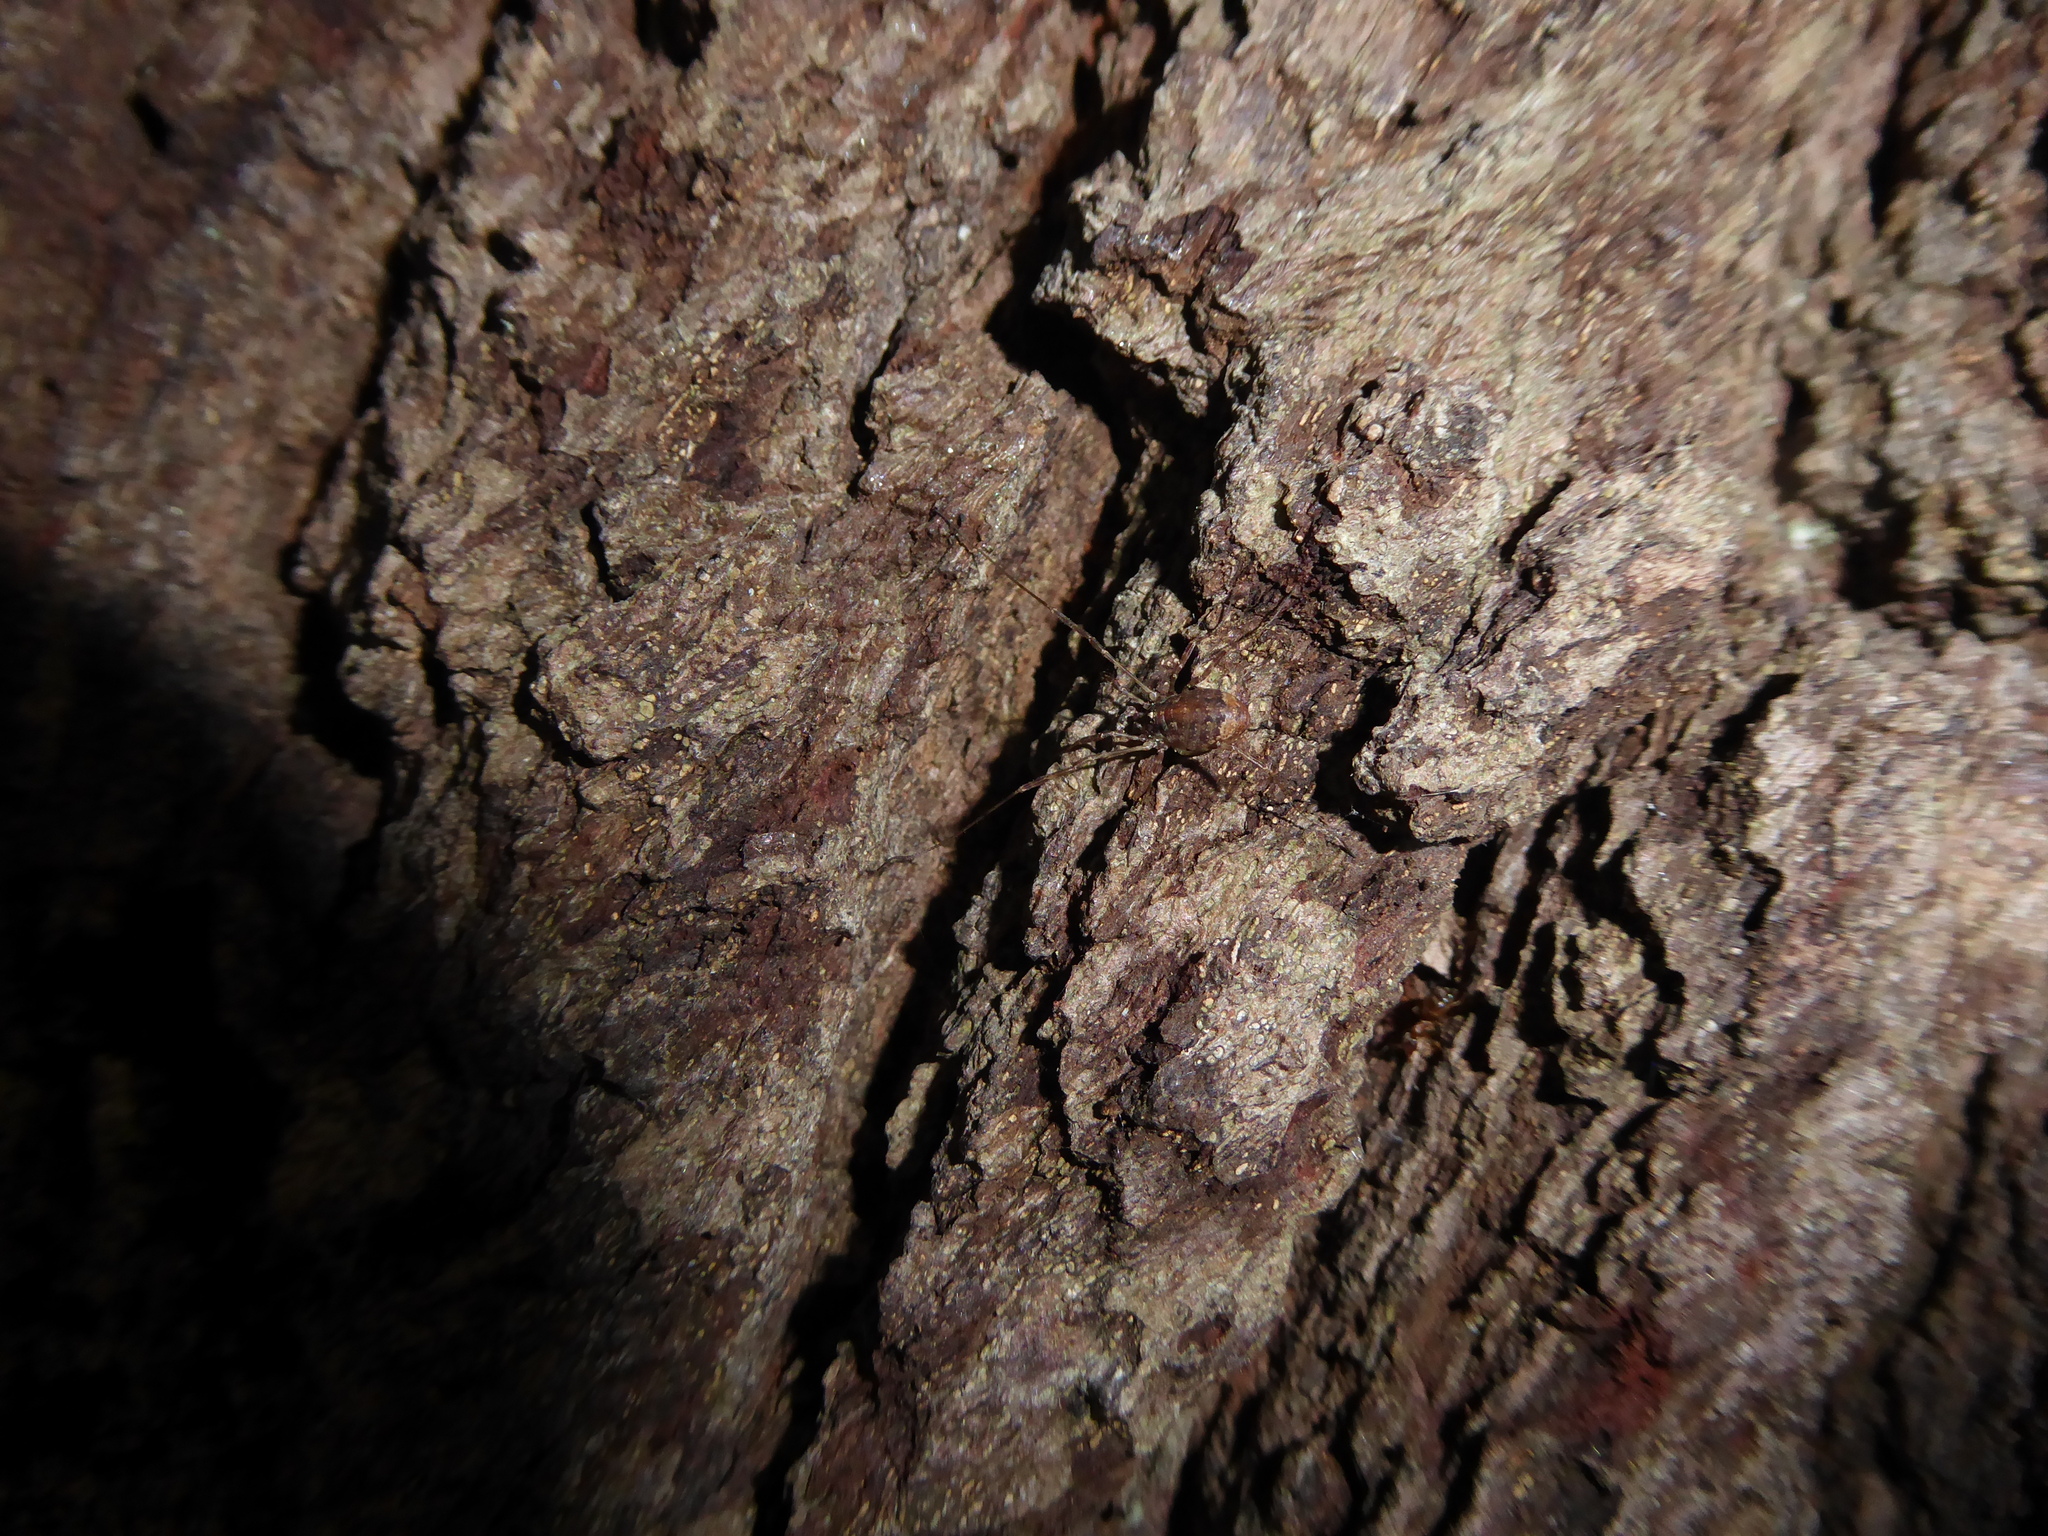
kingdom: Animalia
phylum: Arthropoda
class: Arachnida
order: Opiliones
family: Phalangiidae
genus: Paroligolophus
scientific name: Paroligolophus agrestis
